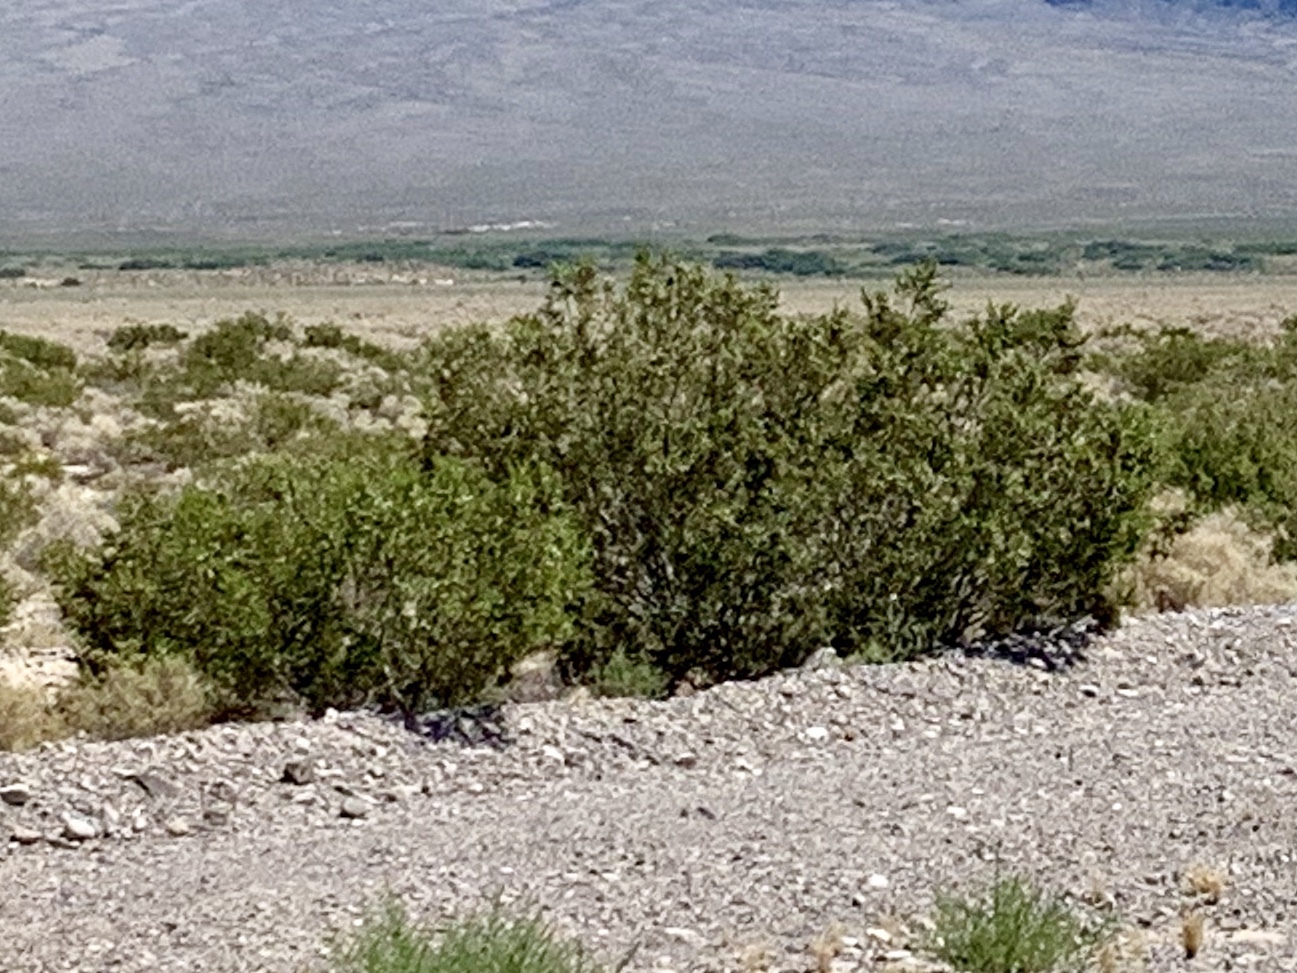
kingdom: Plantae
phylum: Tracheophyta
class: Magnoliopsida
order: Zygophyllales
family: Zygophyllaceae
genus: Larrea
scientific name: Larrea tridentata
